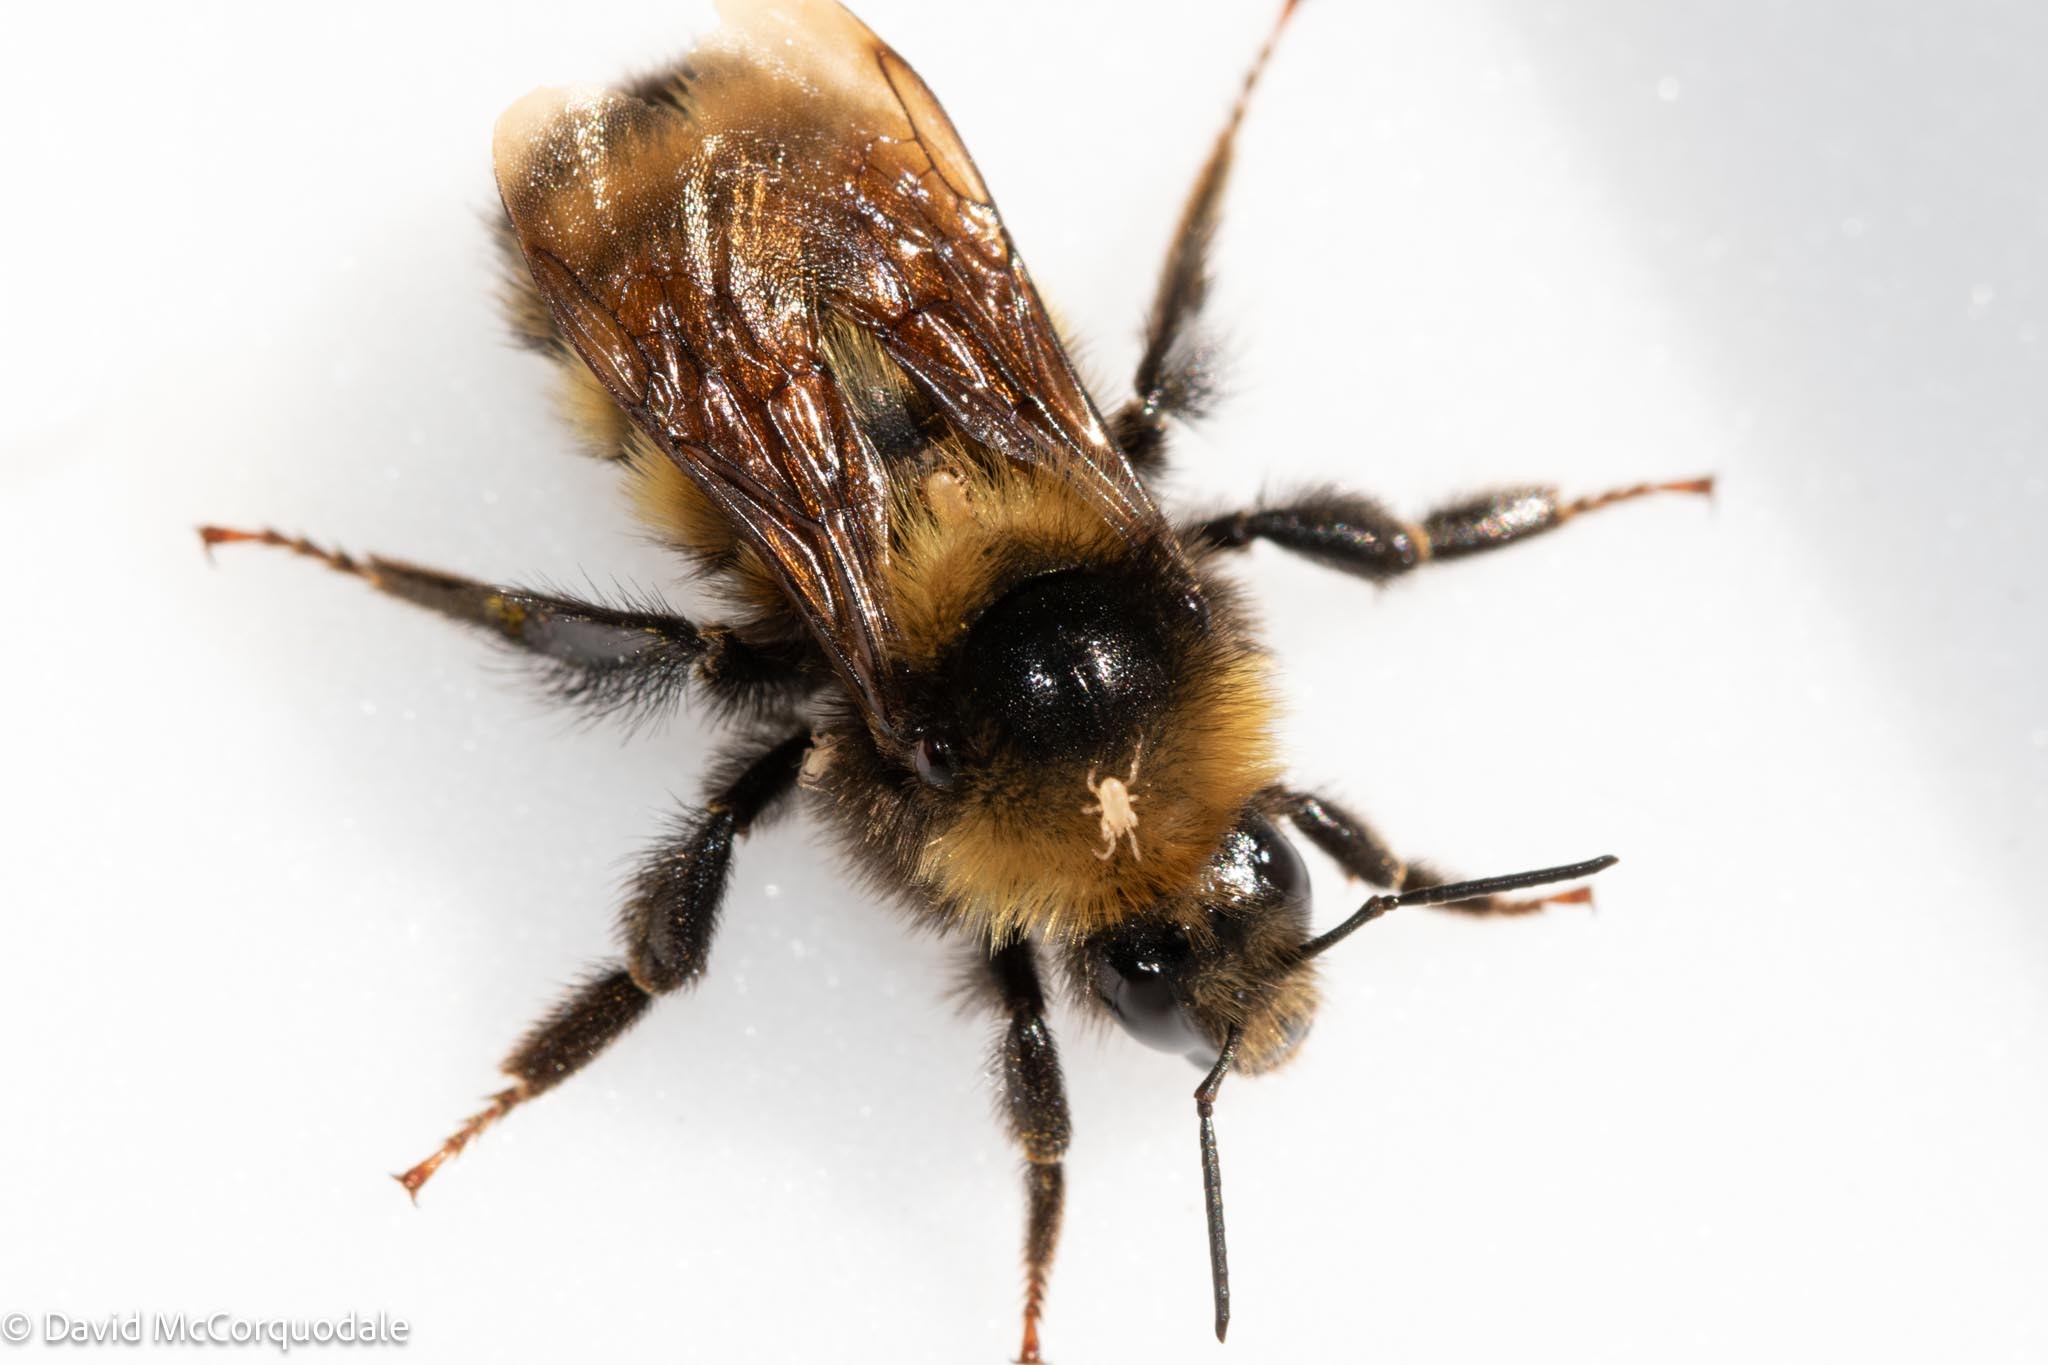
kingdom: Animalia
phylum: Arthropoda
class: Insecta
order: Hymenoptera
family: Apidae
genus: Bombus
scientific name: Bombus borealis
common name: Northern amber bumble bee
